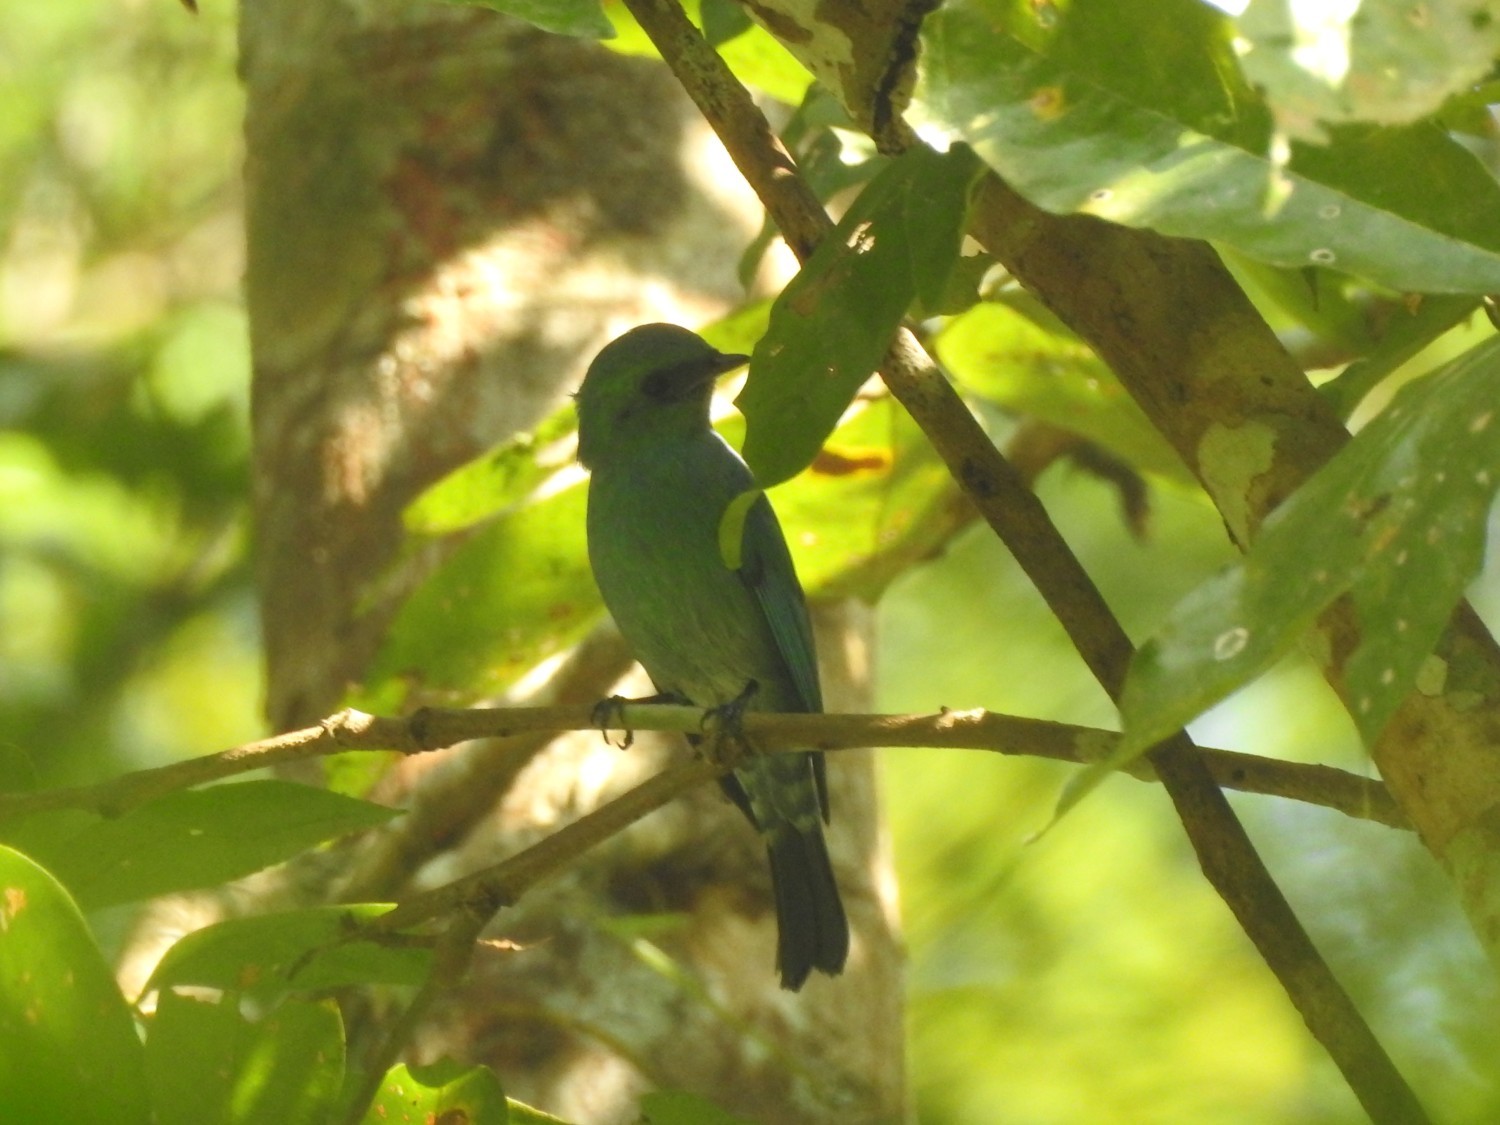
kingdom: Animalia
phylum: Chordata
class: Aves
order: Passeriformes
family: Muscicapidae
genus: Eumyias
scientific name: Eumyias thalassinus
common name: Verditer flycatcher
